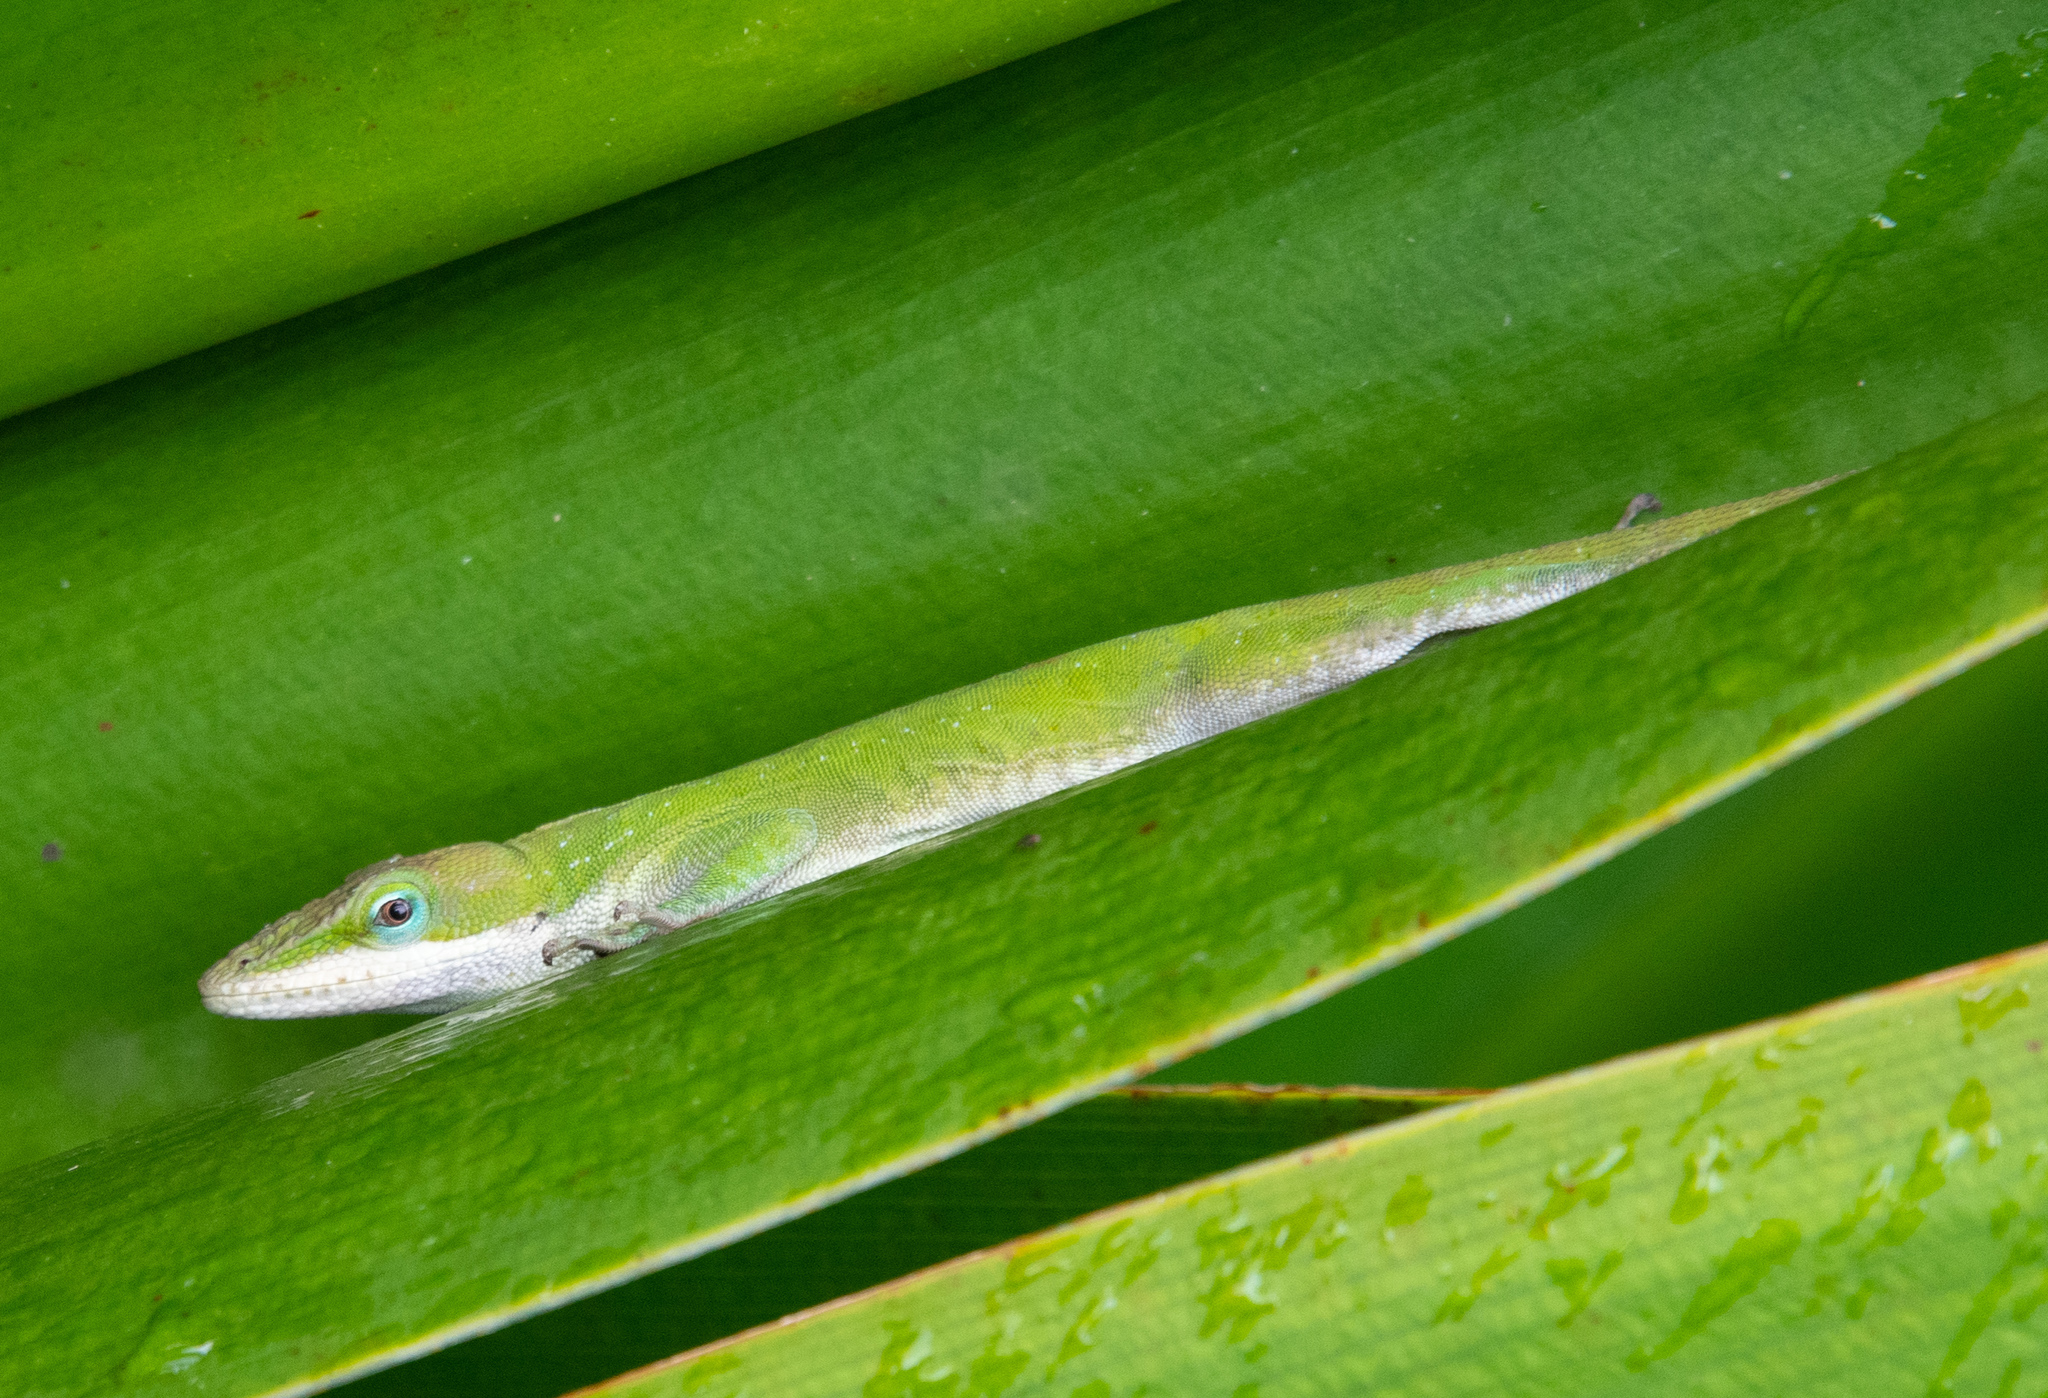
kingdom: Animalia
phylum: Chordata
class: Squamata
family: Dactyloidae
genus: Anolis
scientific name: Anolis carolinensis
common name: Green anole
